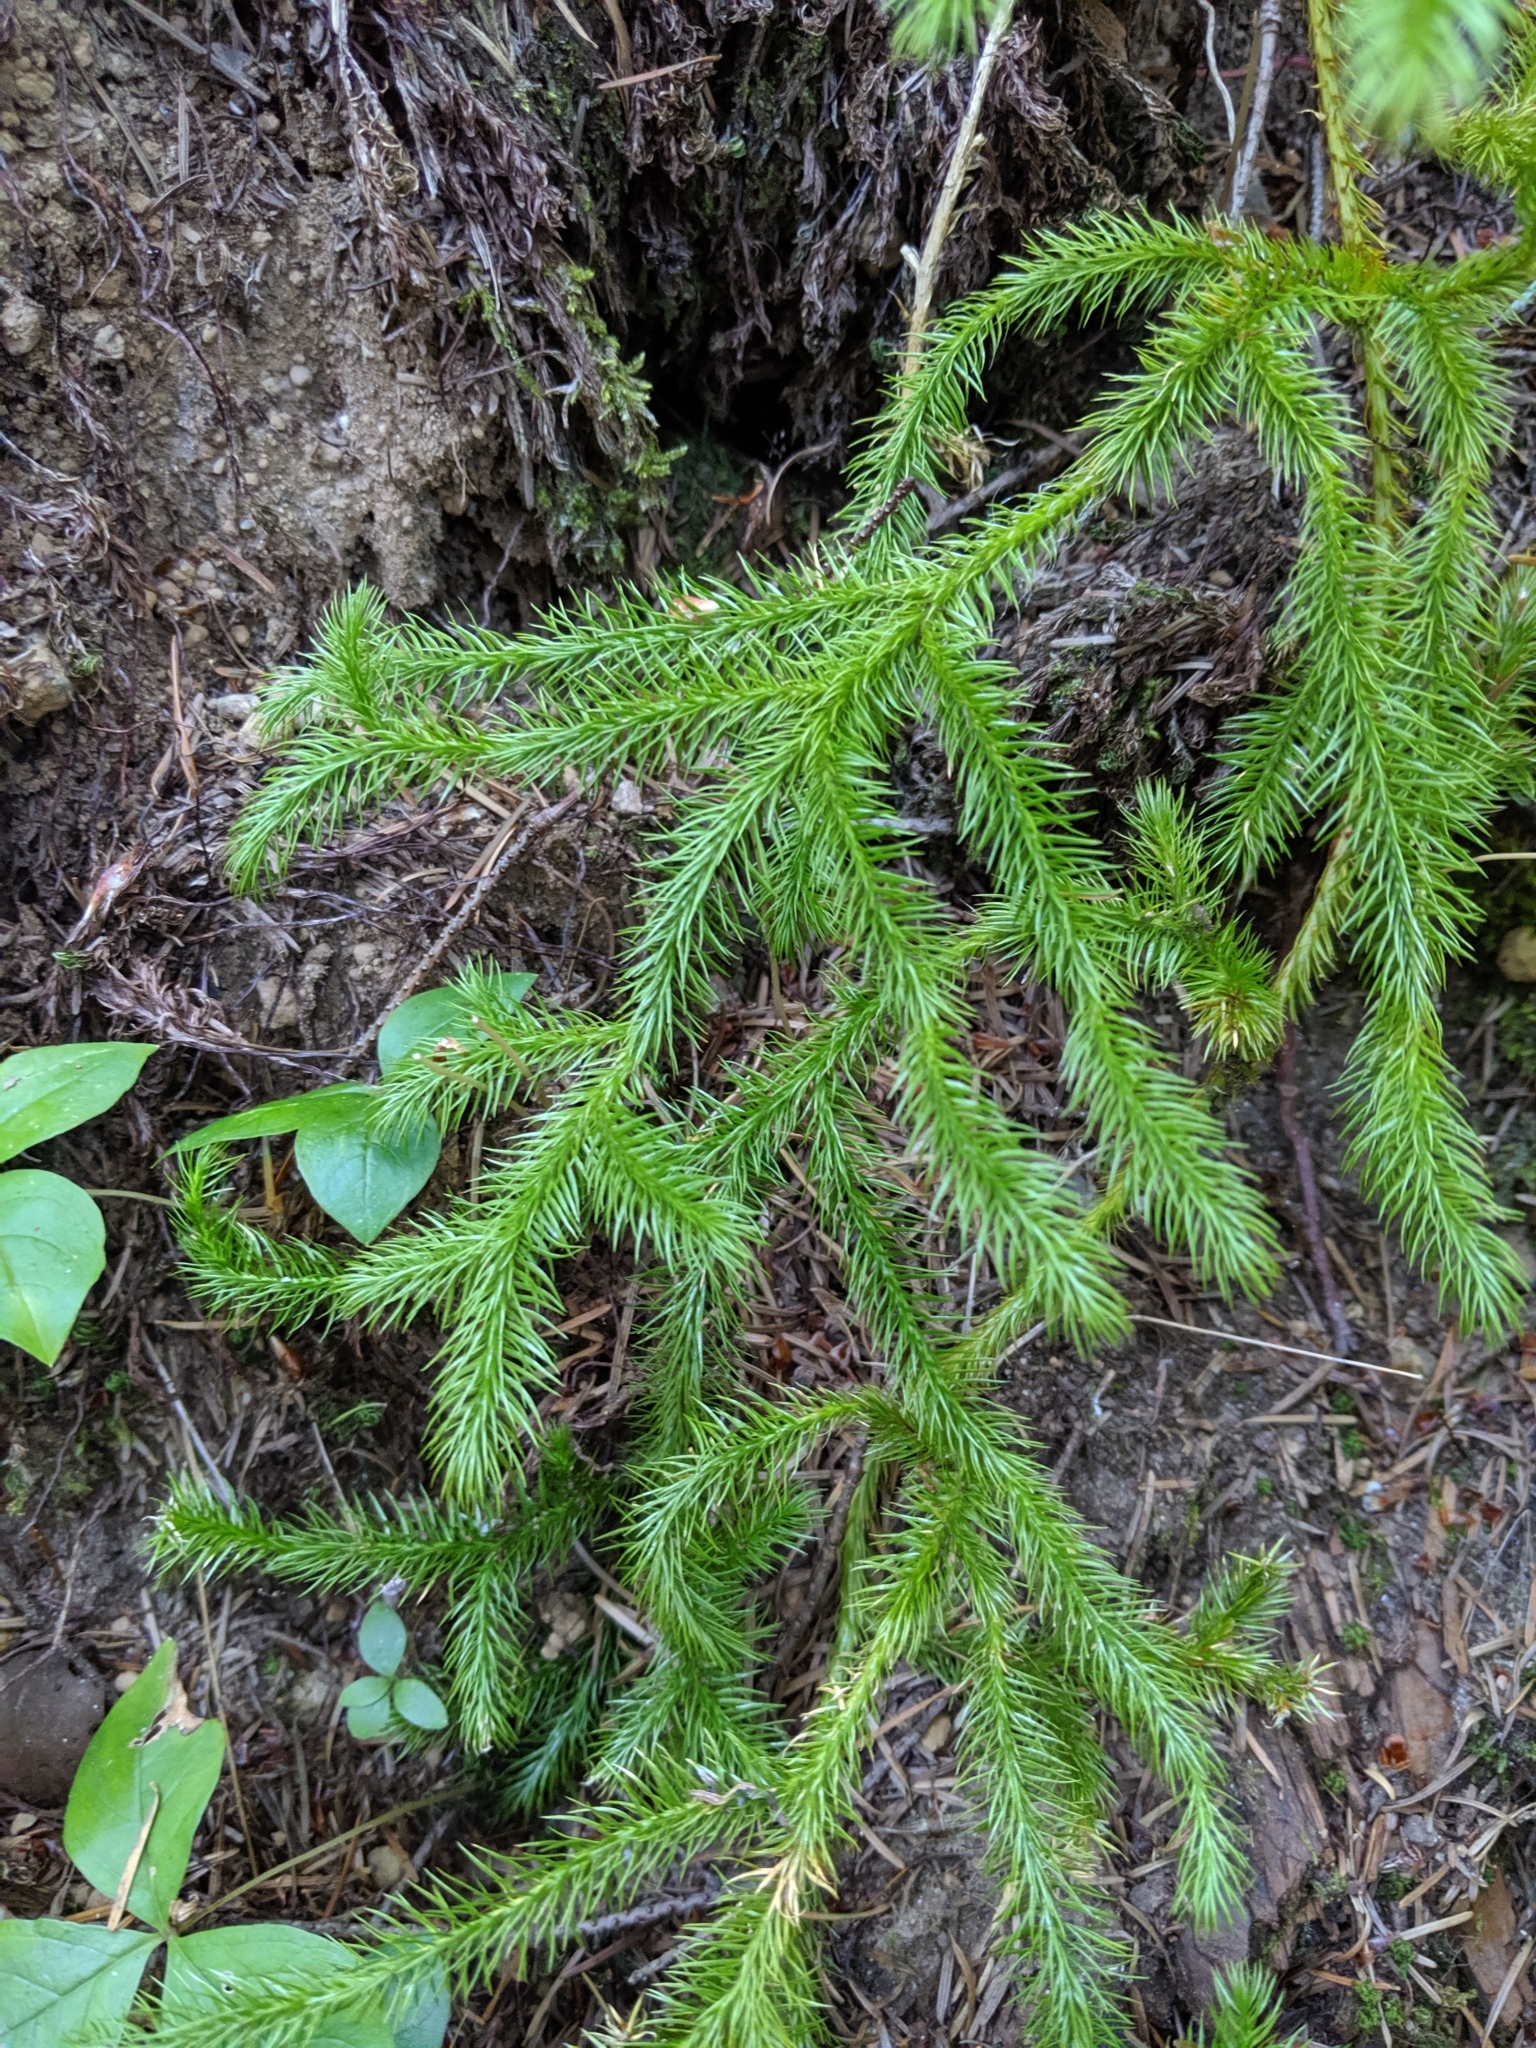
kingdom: Plantae
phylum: Tracheophyta
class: Lycopodiopsida
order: Lycopodiales
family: Lycopodiaceae
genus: Lycopodium
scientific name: Lycopodium clavatum
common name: Stag's-horn clubmoss
